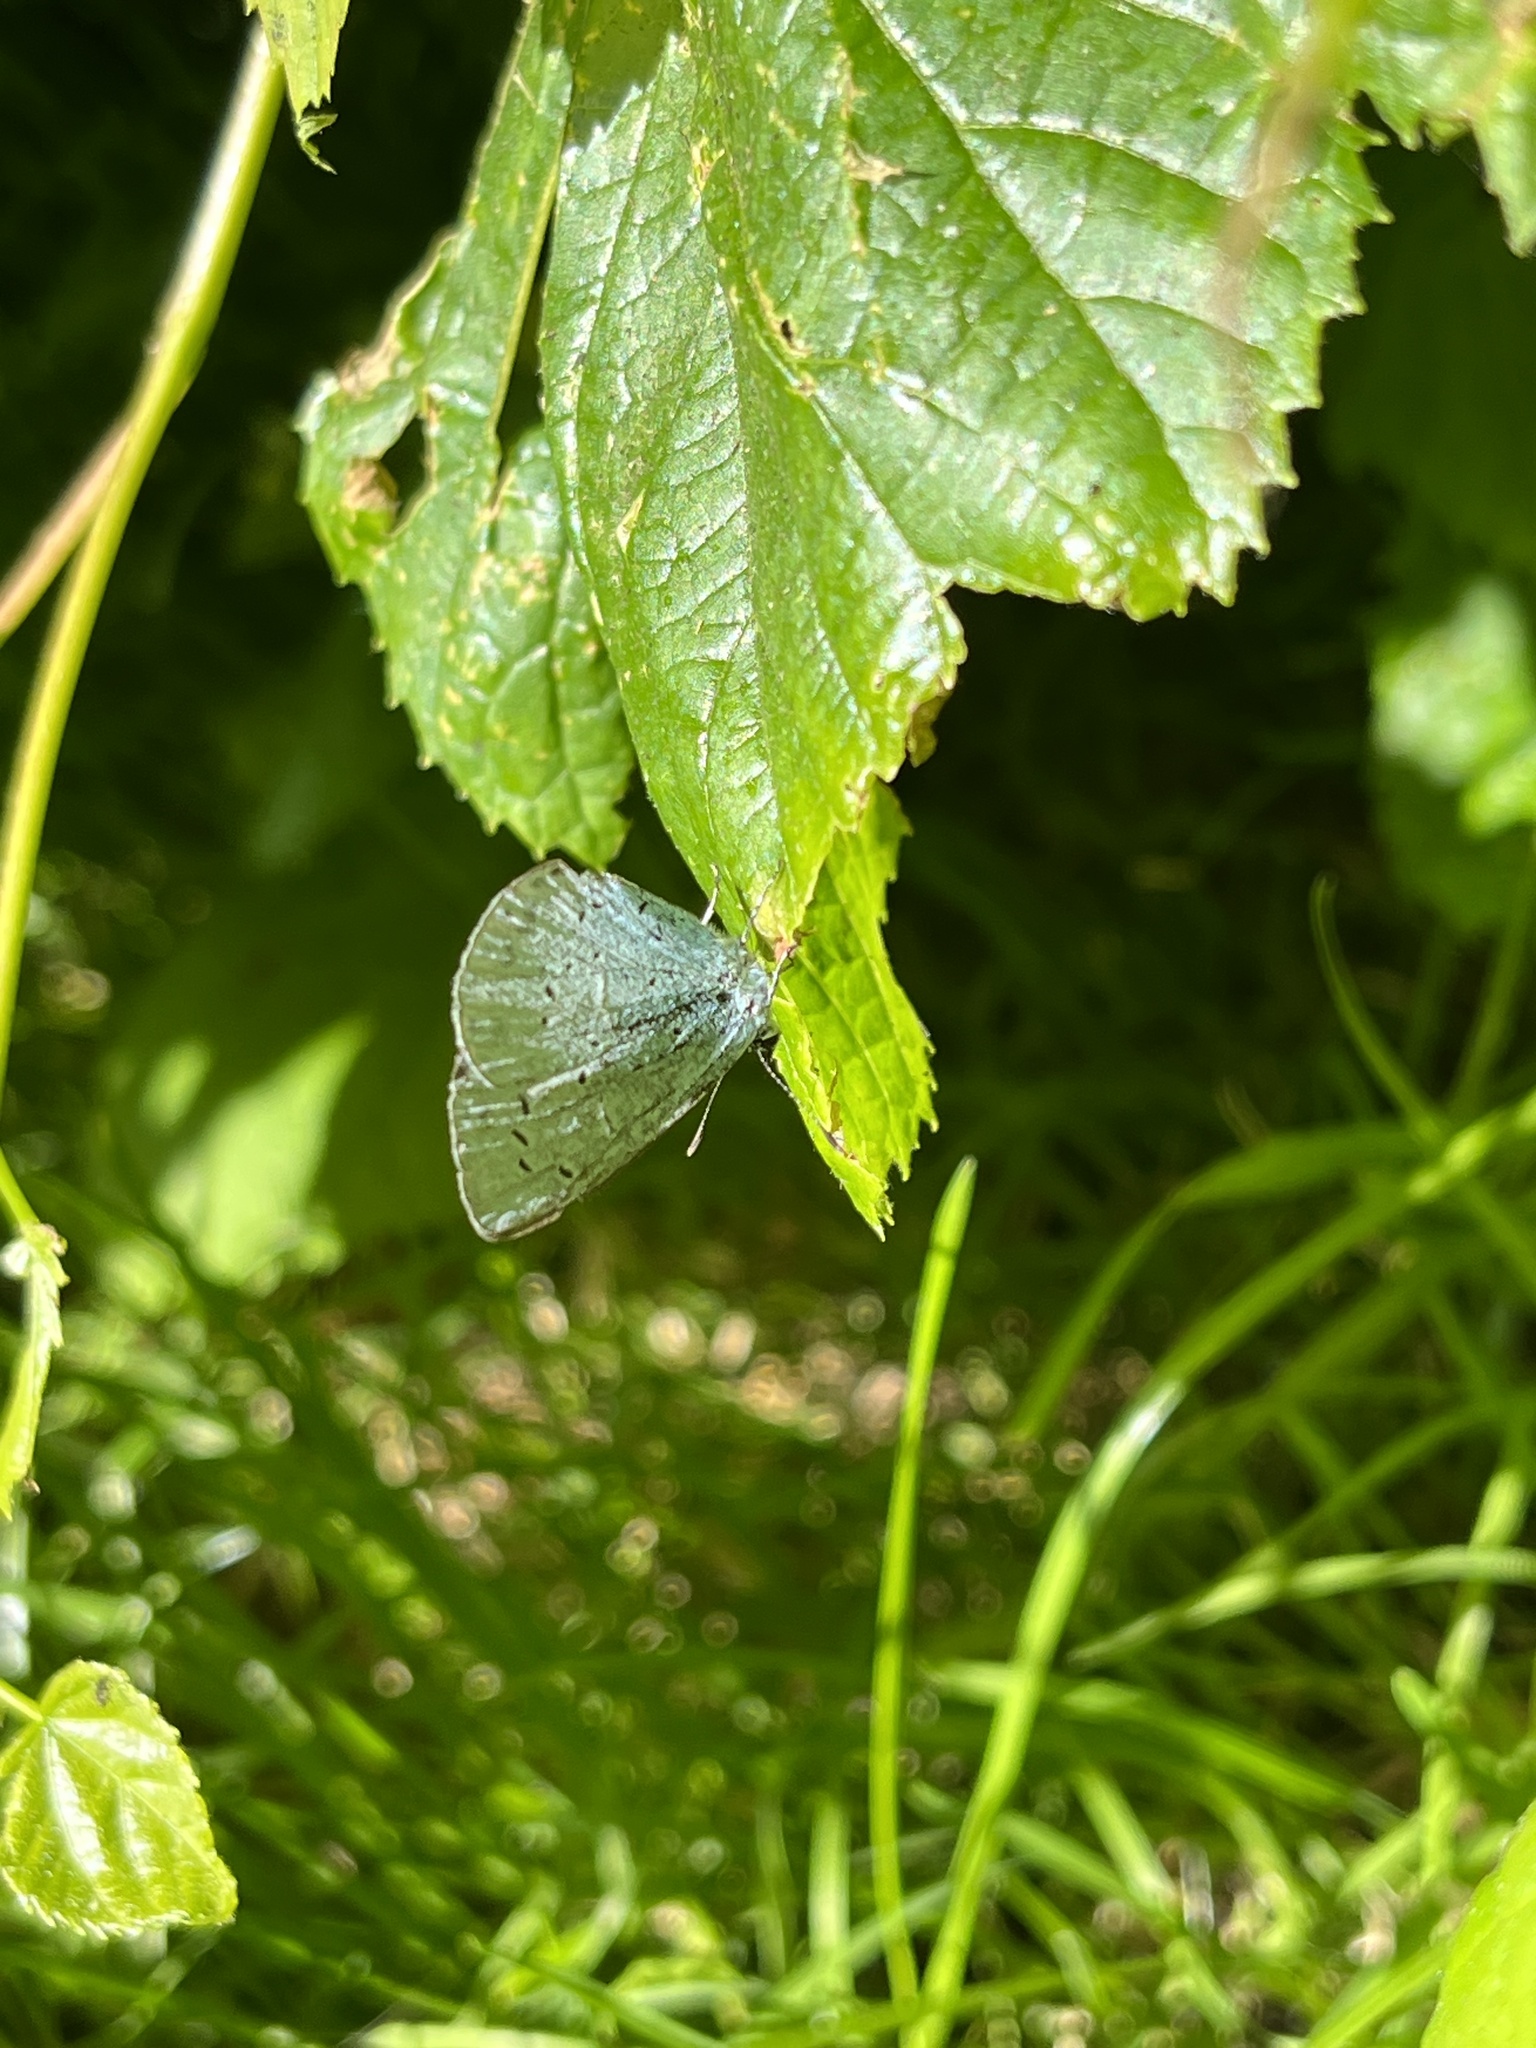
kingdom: Animalia
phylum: Arthropoda
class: Insecta
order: Lepidoptera
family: Lycaenidae
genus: Celastrina
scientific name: Celastrina argiolus
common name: Holly blue
